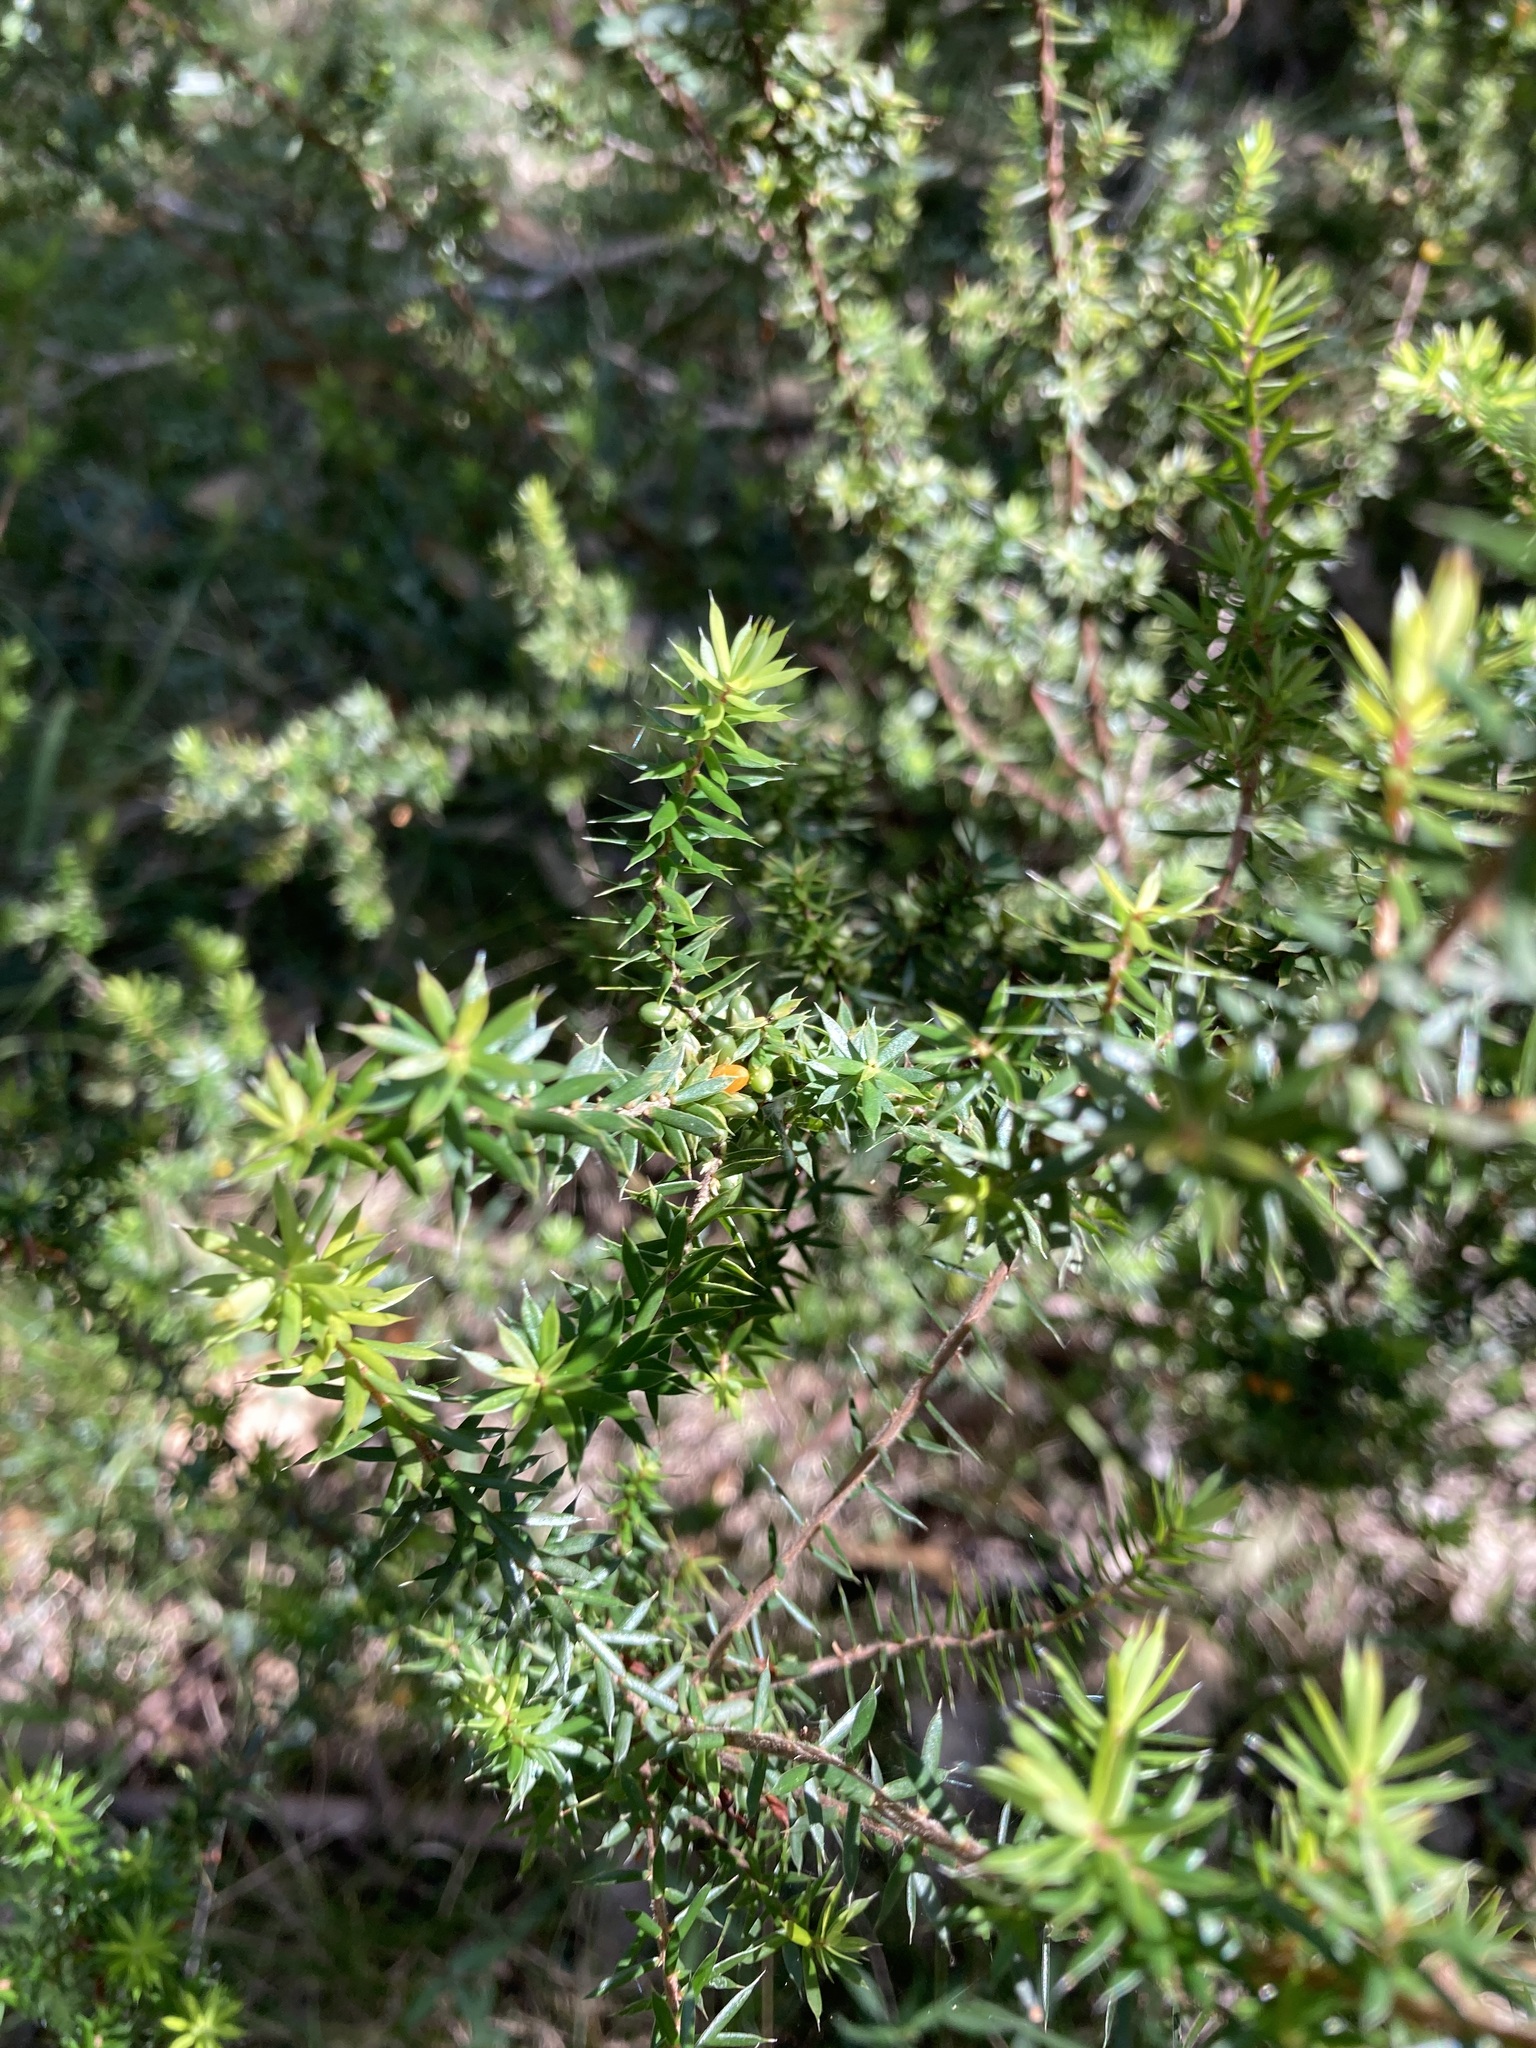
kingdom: Plantae
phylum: Tracheophyta
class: Magnoliopsida
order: Ericales
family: Ericaceae
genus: Styphelia
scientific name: Styphelia sieberi
